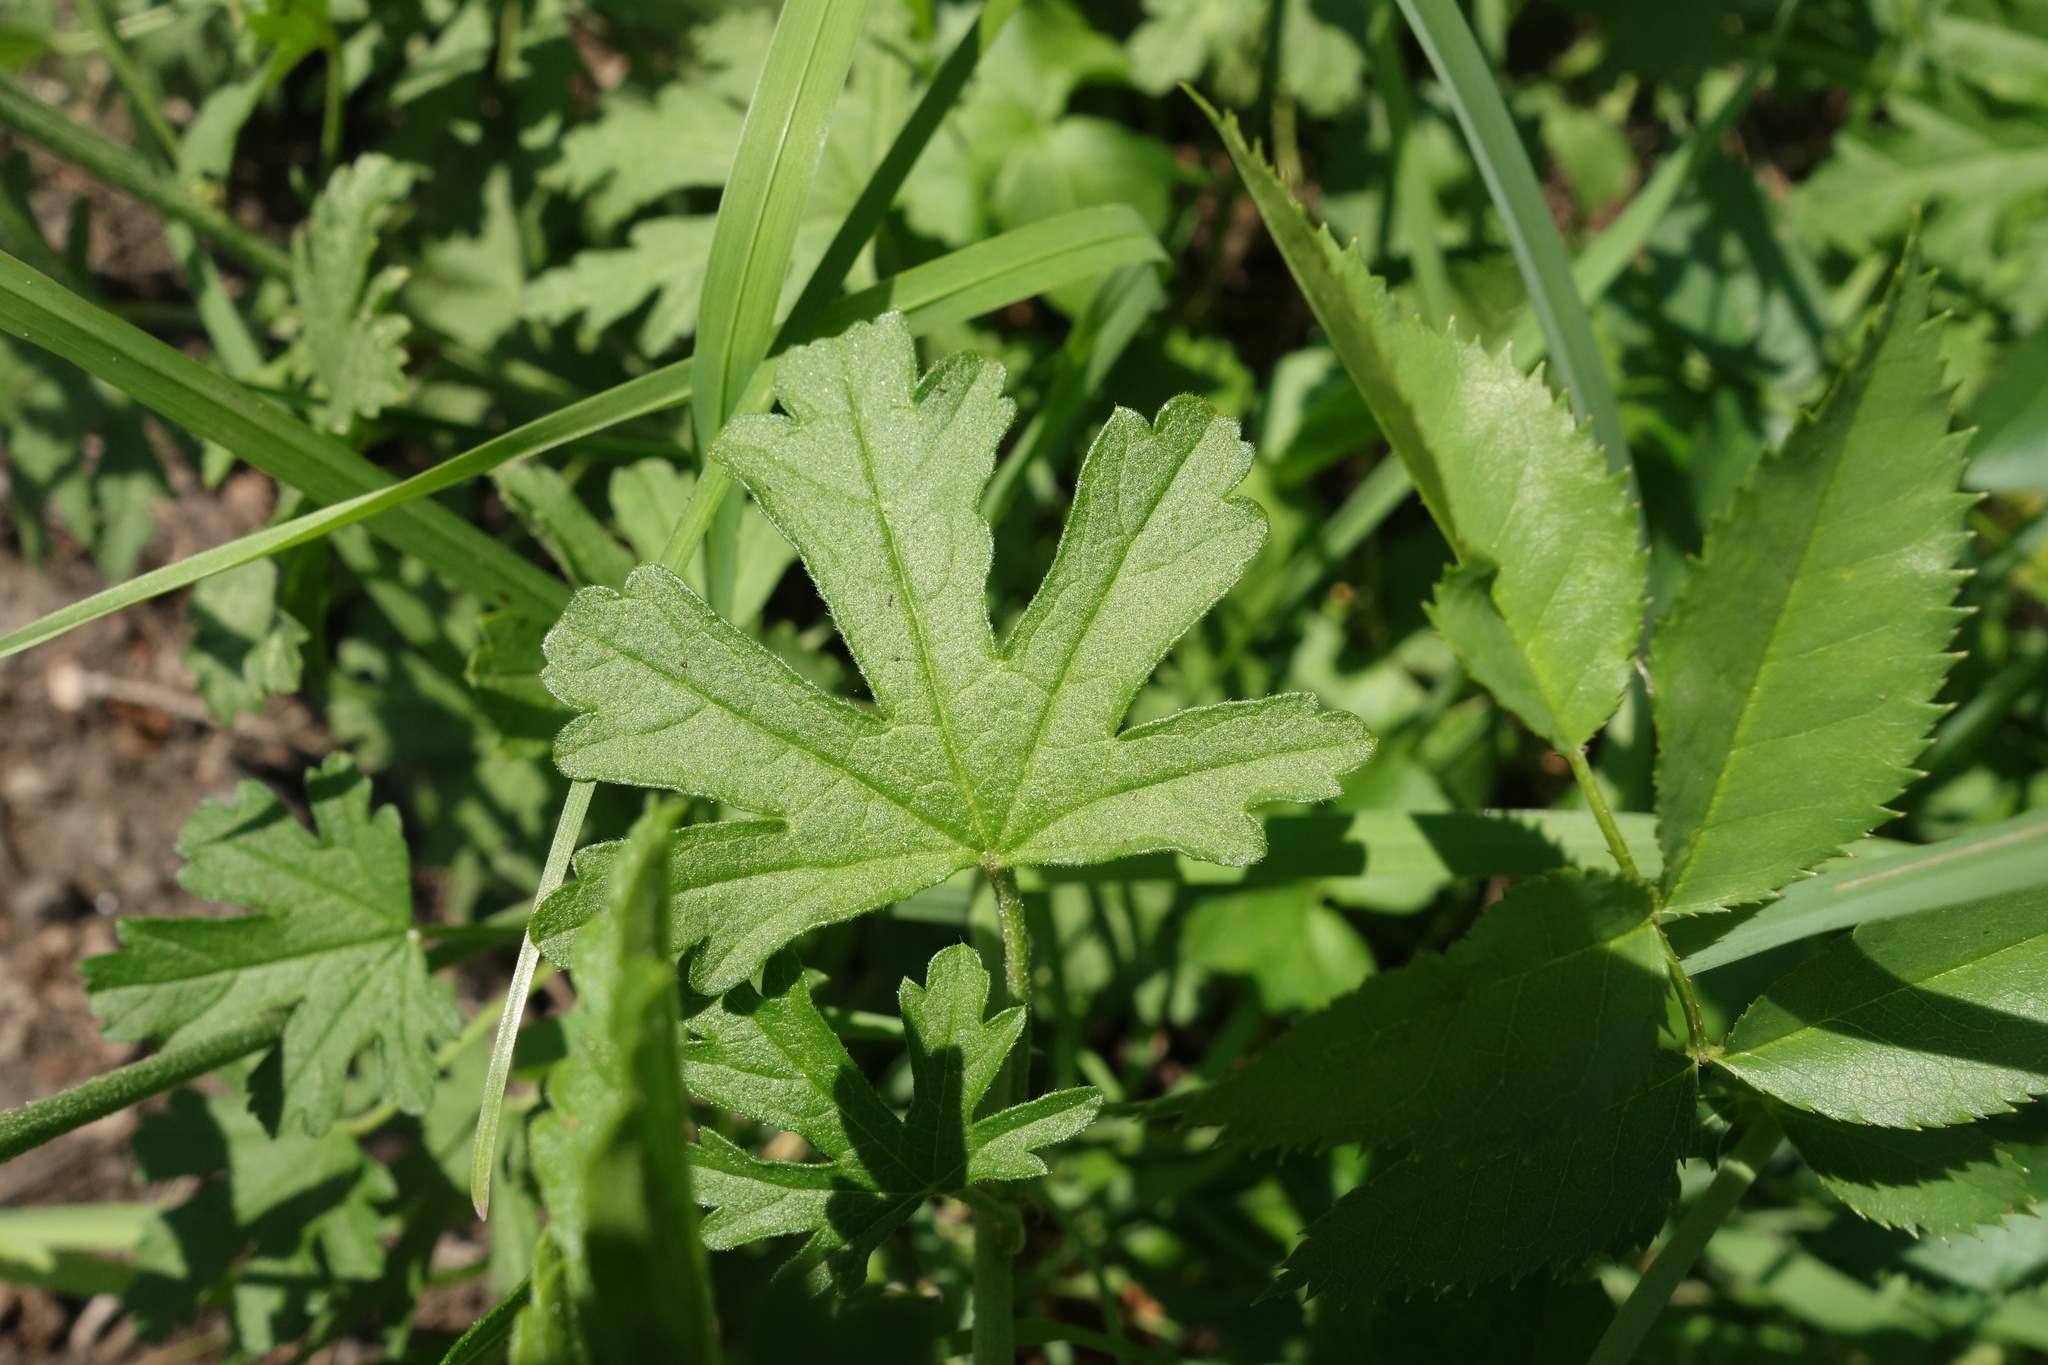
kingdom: Plantae
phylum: Tracheophyta
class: Magnoliopsida
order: Malvales
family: Malvaceae
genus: Malva
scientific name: Malva alcea
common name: Greater musk-mallow
